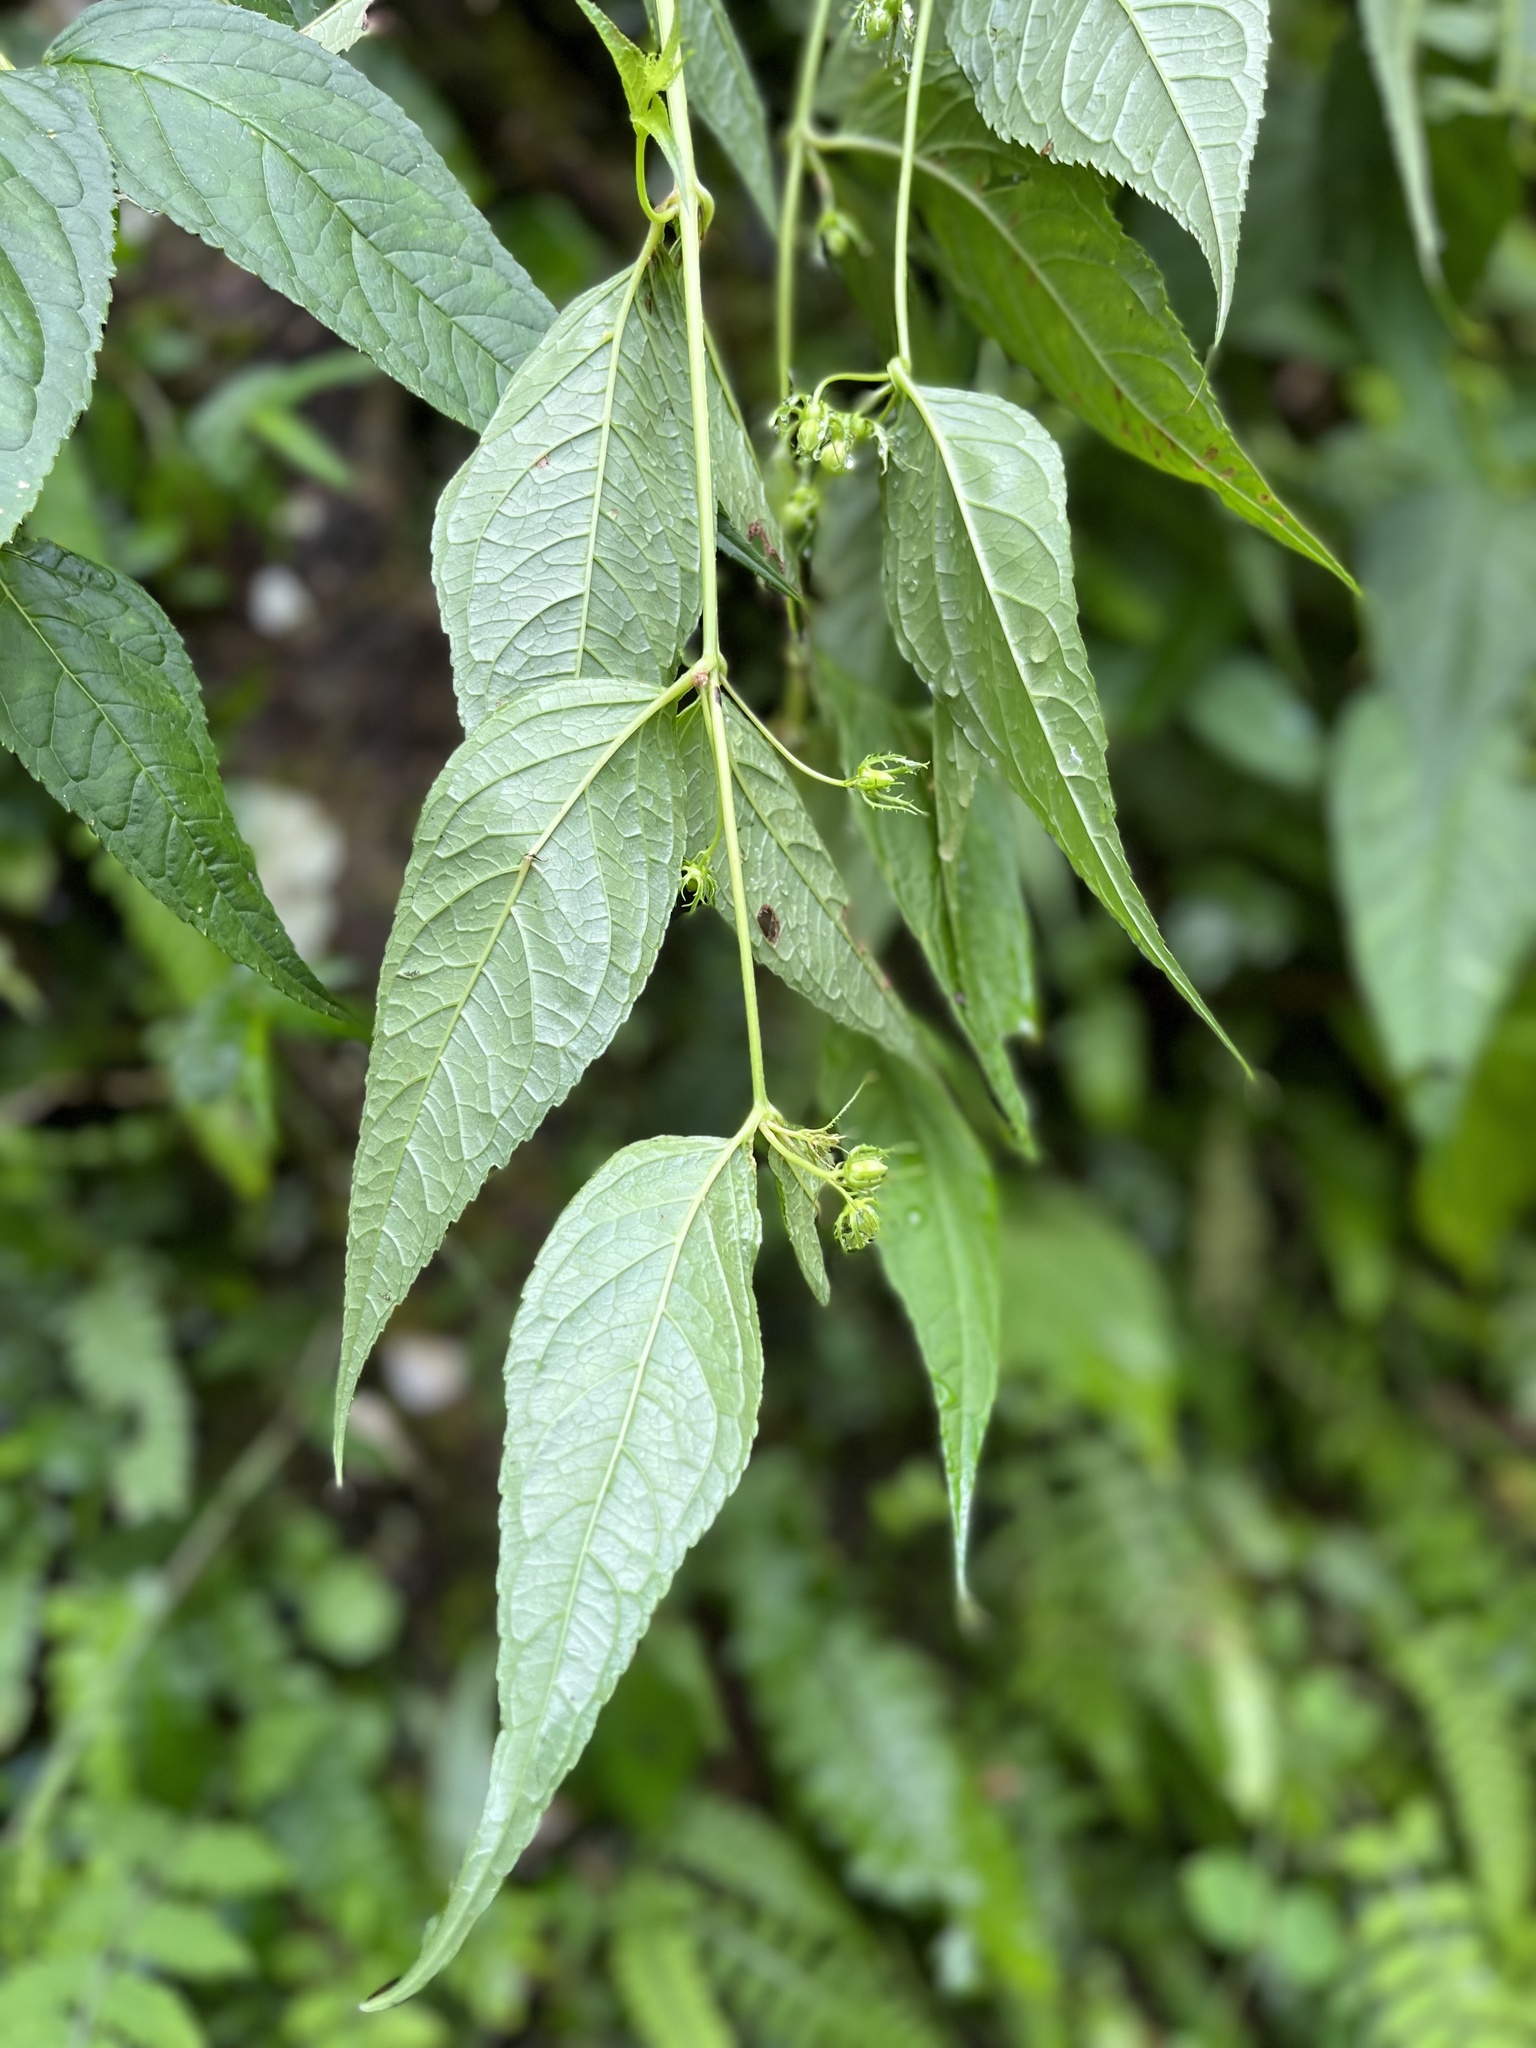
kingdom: Plantae
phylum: Tracheophyta
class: Magnoliopsida
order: Asterales
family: Campanulaceae
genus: Cyclocodon
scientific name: Cyclocodon lancifolius
